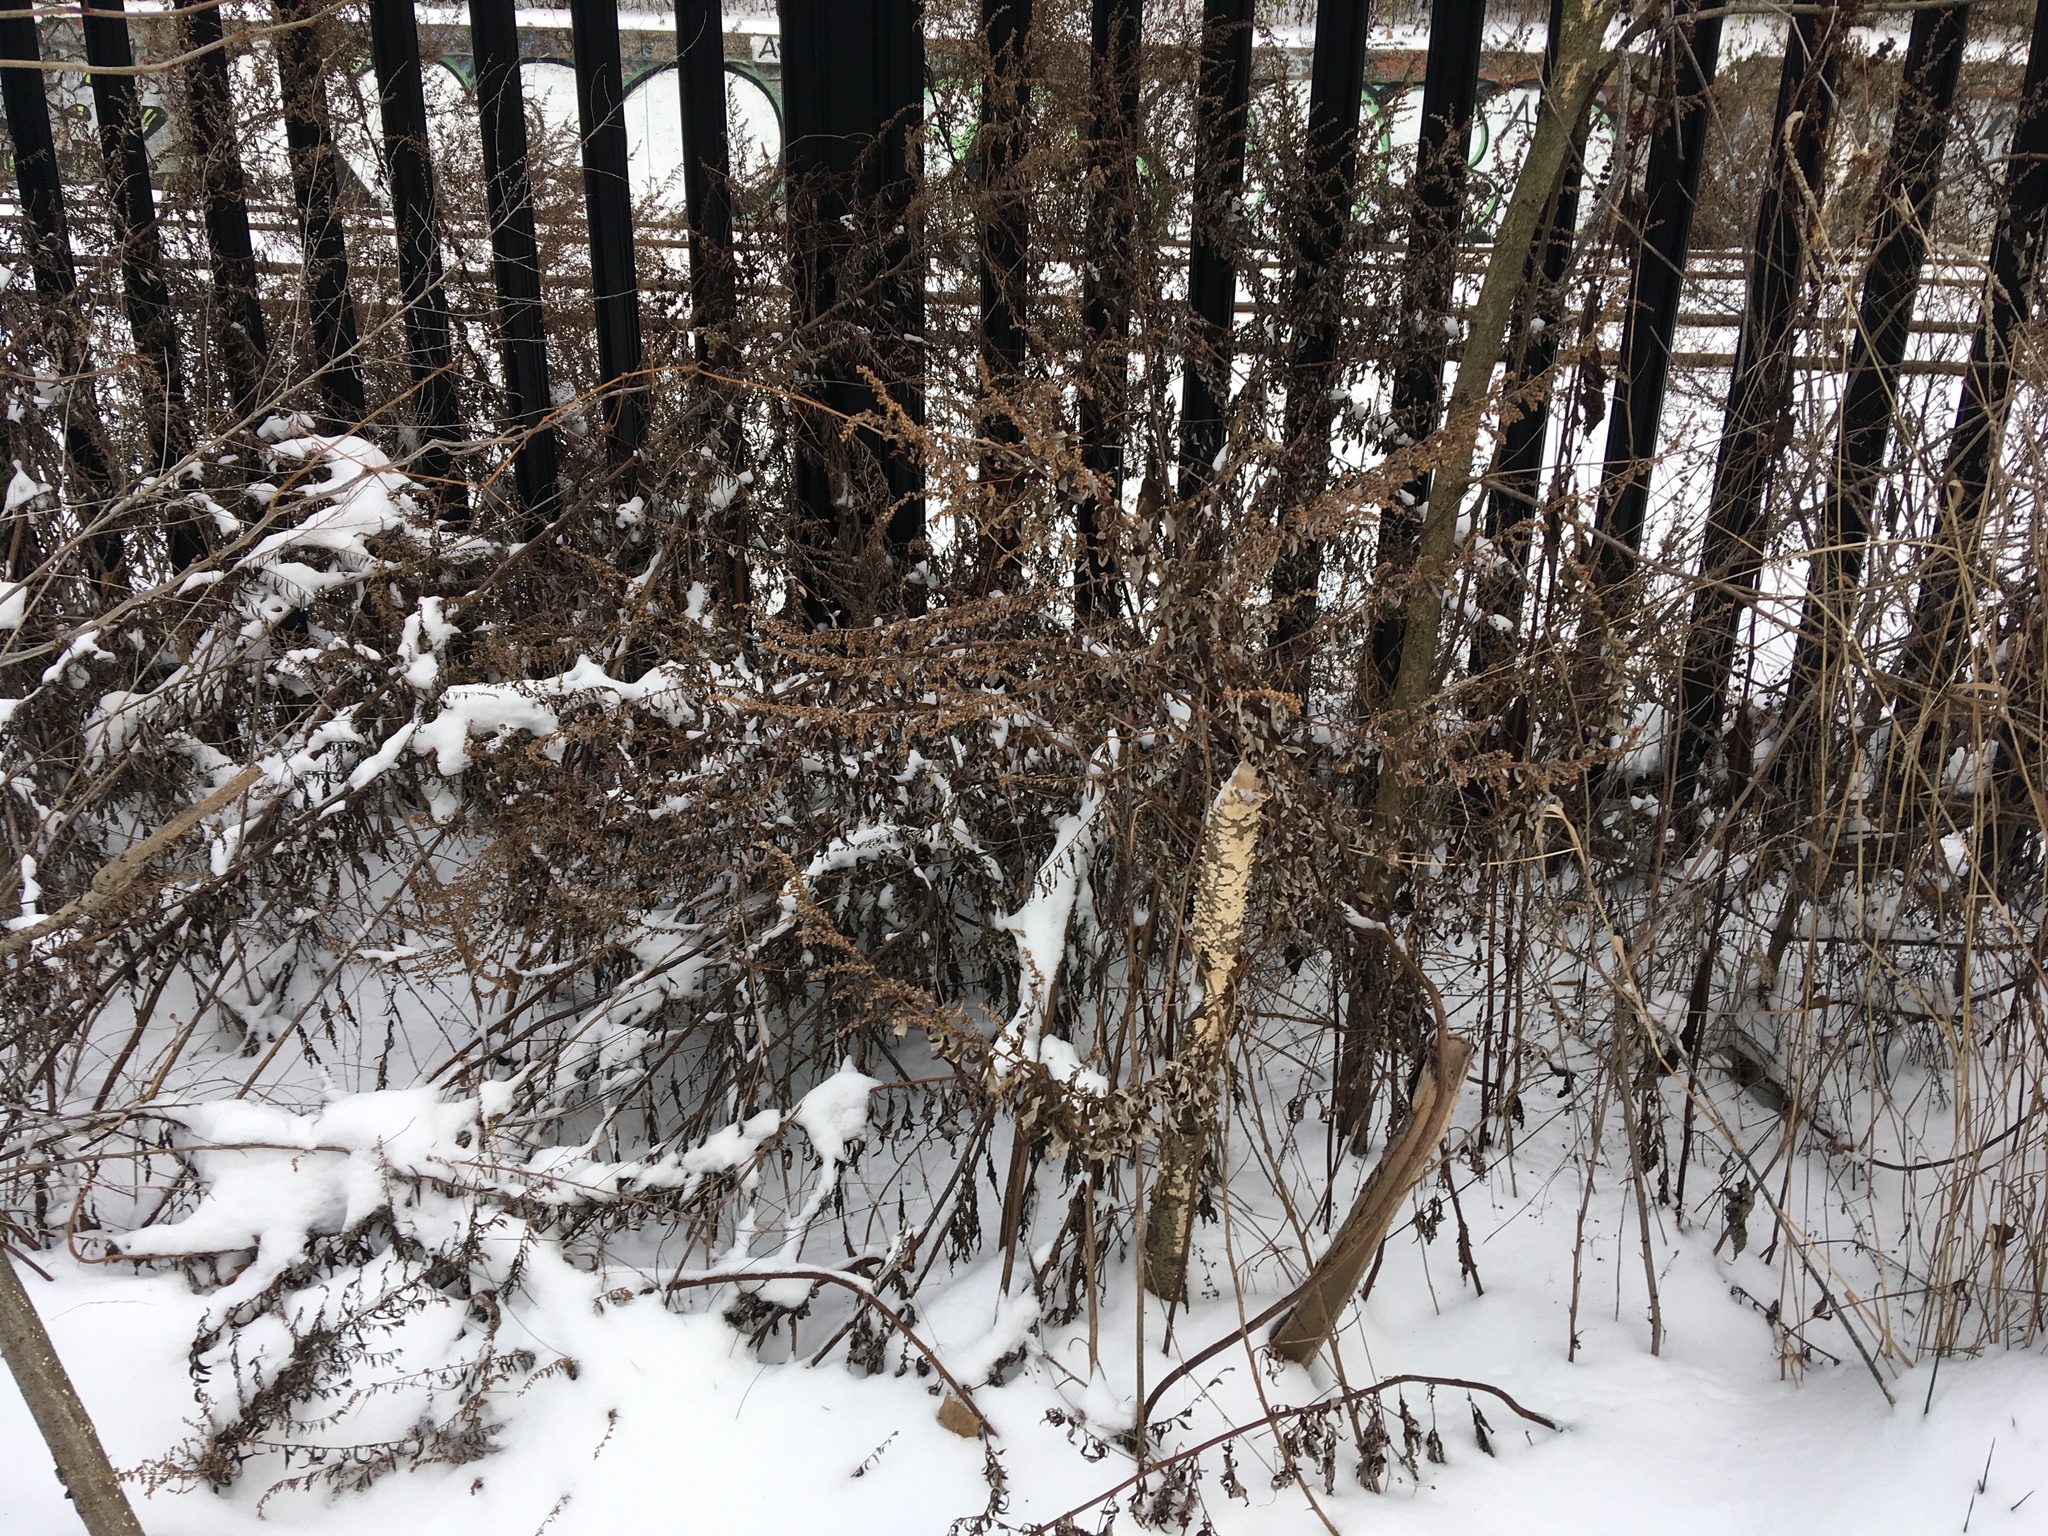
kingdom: Plantae
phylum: Tracheophyta
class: Magnoliopsida
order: Asterales
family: Asteraceae
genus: Artemisia
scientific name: Artemisia vulgaris
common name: Mugwort
